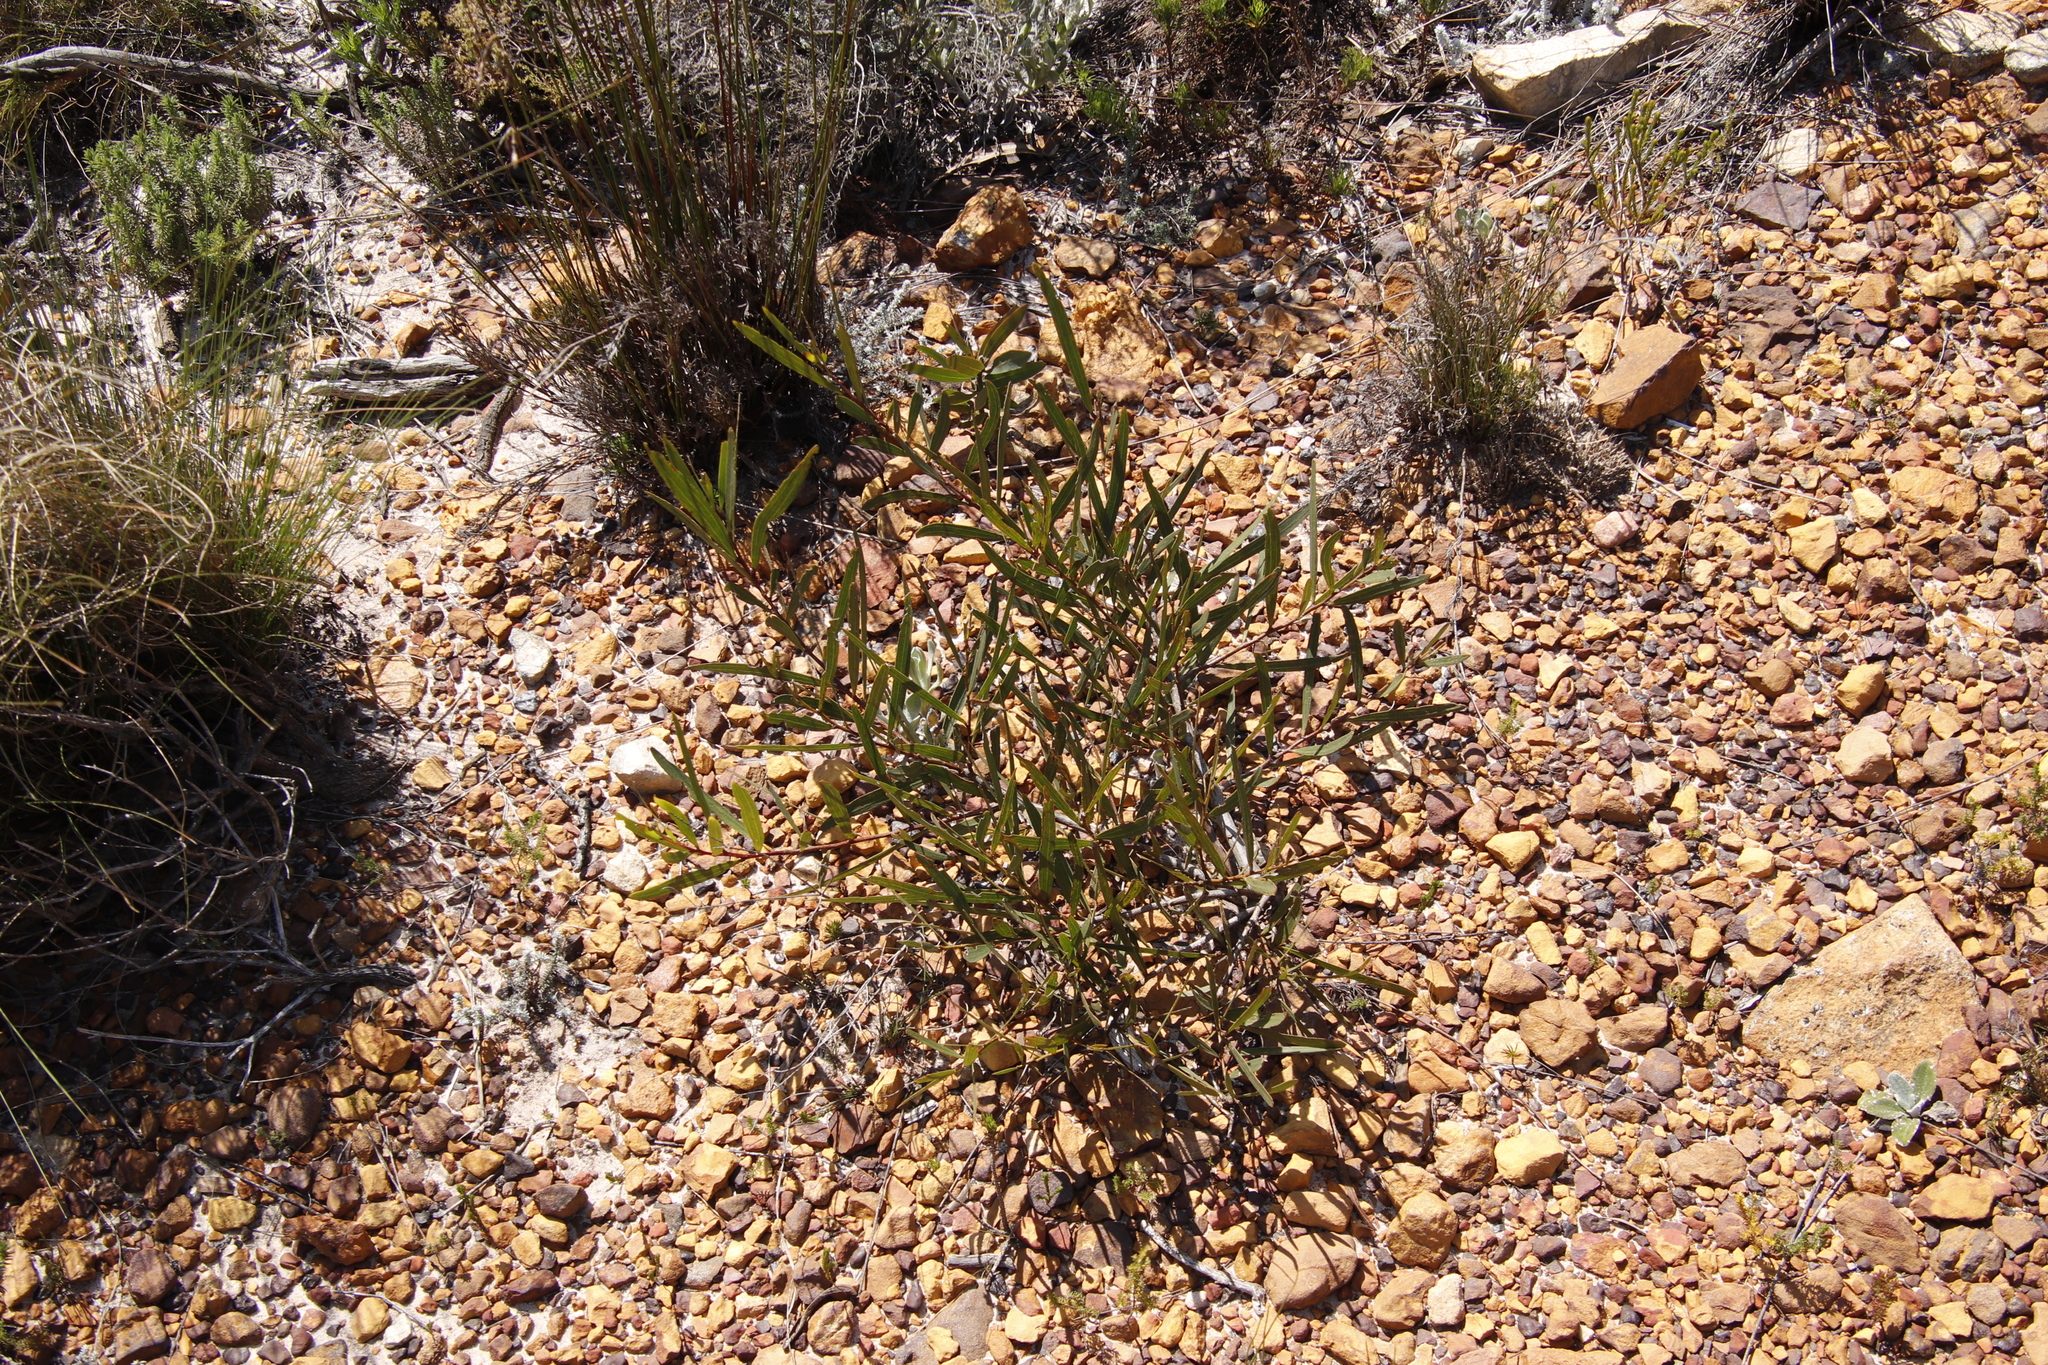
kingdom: Plantae
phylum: Tracheophyta
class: Magnoliopsida
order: Fabales
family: Fabaceae
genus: Acacia
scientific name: Acacia longifolia
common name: Sydney golden wattle
